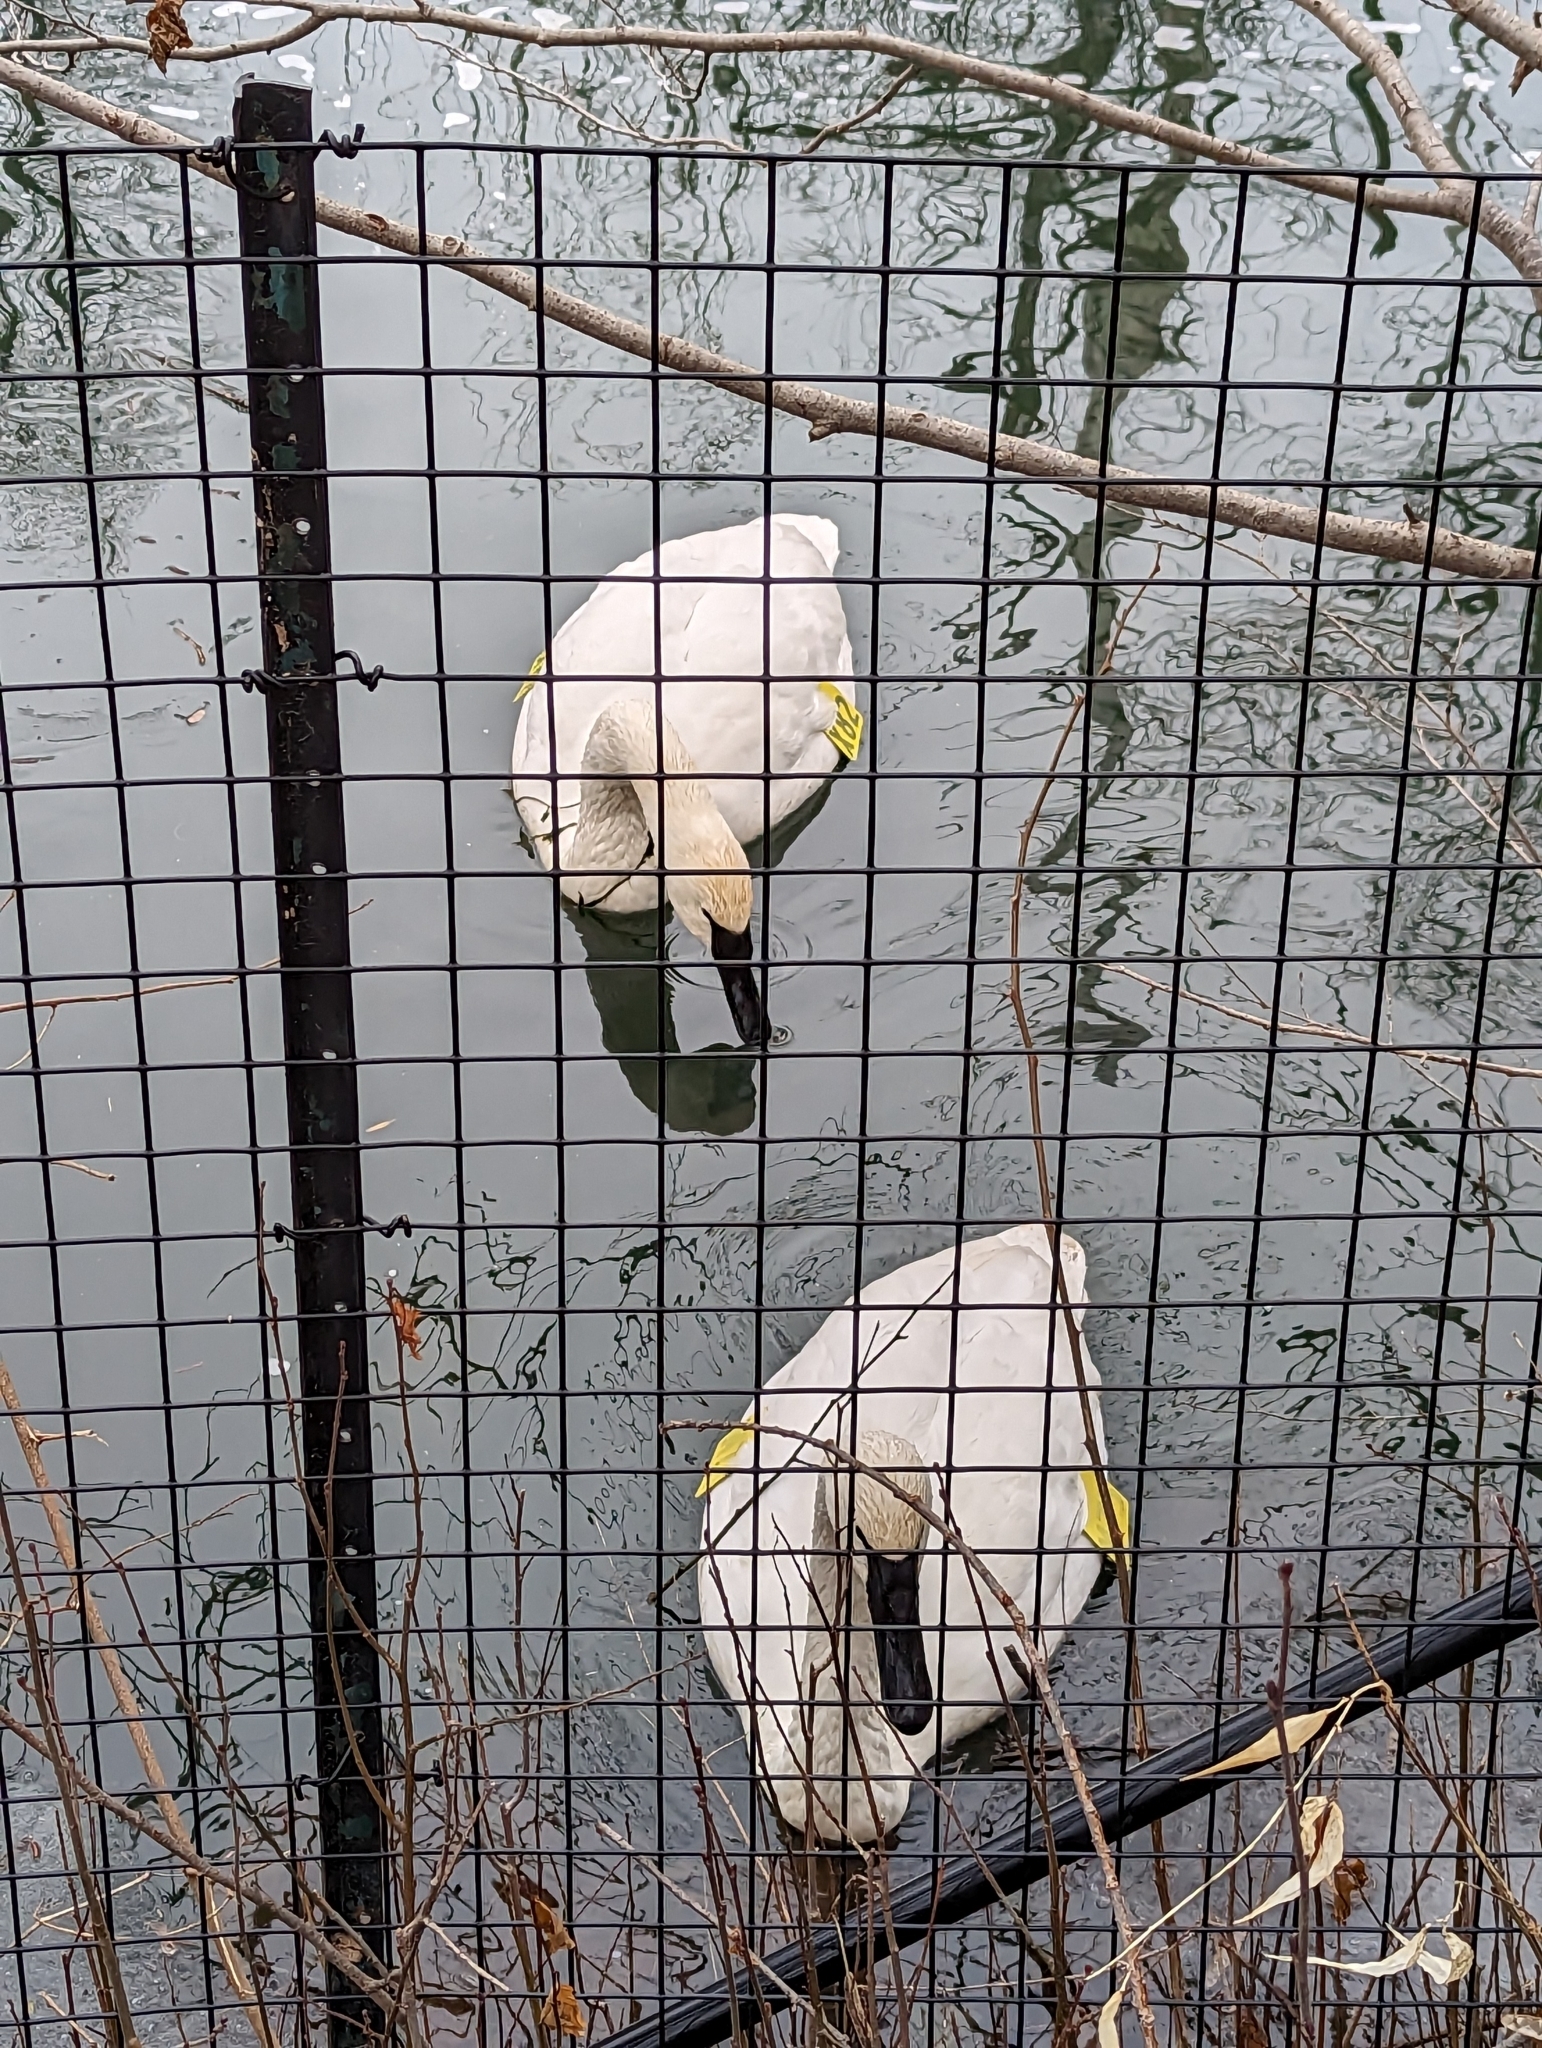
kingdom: Animalia
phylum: Chordata
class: Aves
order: Anseriformes
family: Anatidae
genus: Cygnus
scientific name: Cygnus buccinator
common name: Trumpeter swan
